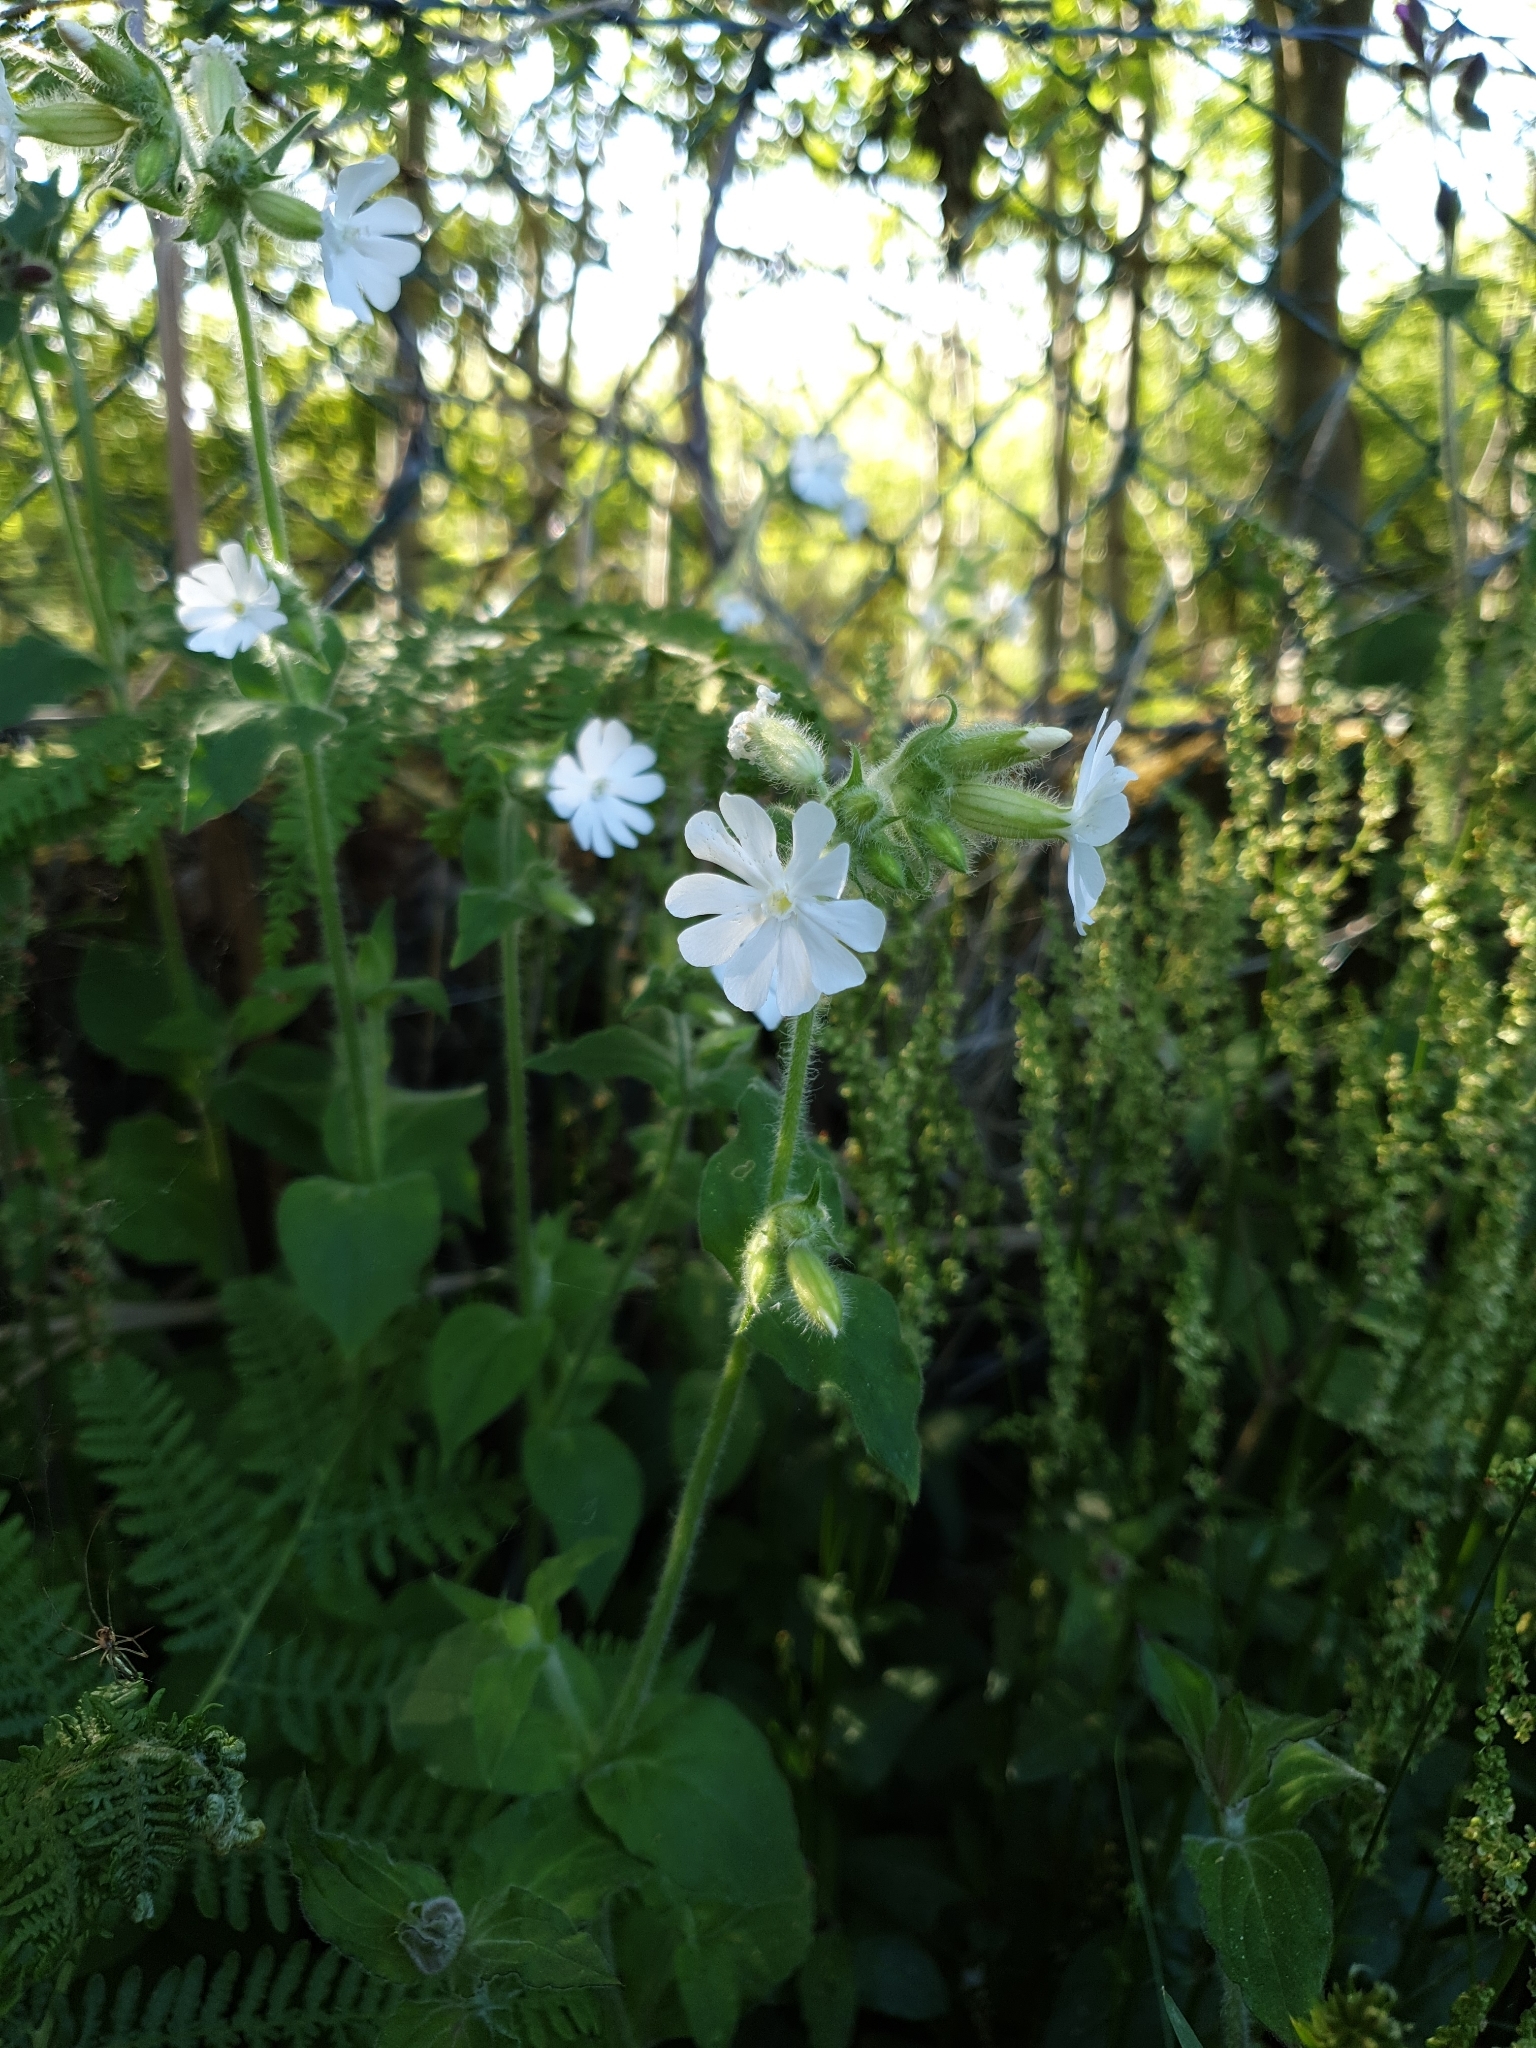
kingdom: Plantae
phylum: Tracheophyta
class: Magnoliopsida
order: Caryophyllales
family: Caryophyllaceae
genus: Silene
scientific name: Silene latifolia
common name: White campion
